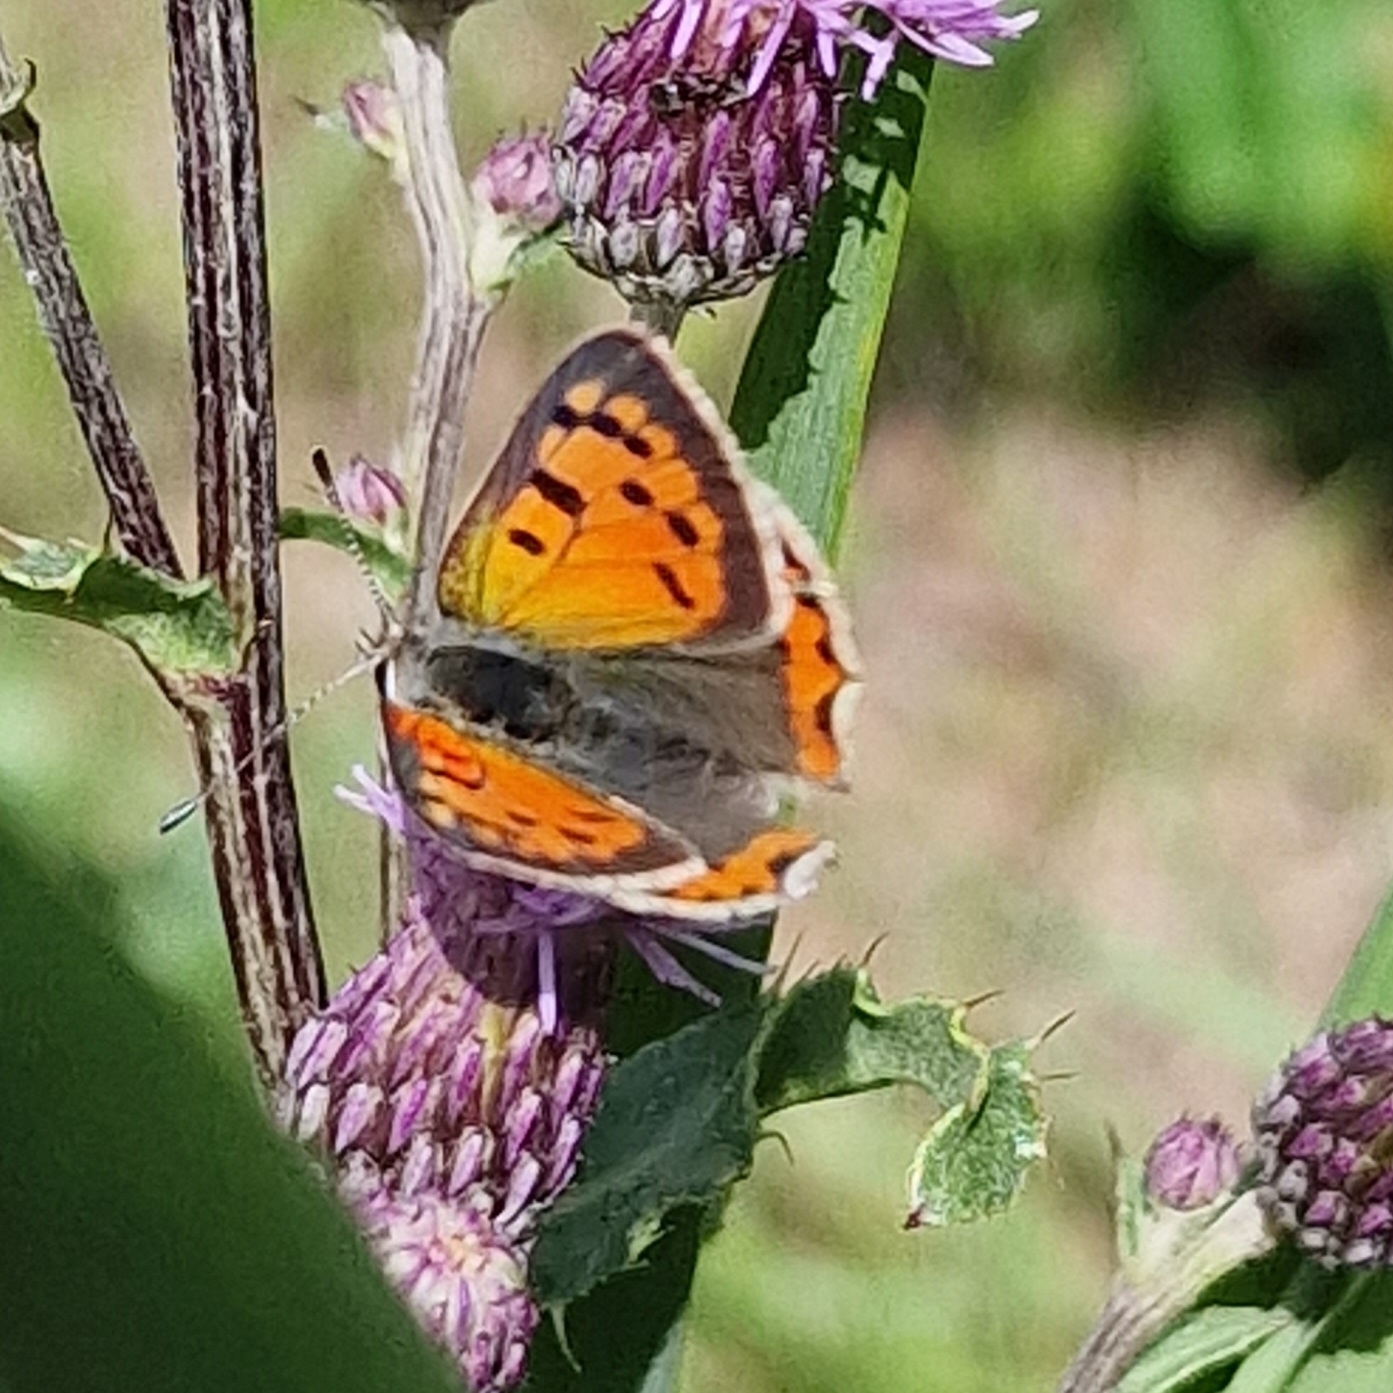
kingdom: Animalia
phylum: Arthropoda
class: Insecta
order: Lepidoptera
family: Lycaenidae
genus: Lycaena
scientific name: Lycaena phlaeas
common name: Small copper
